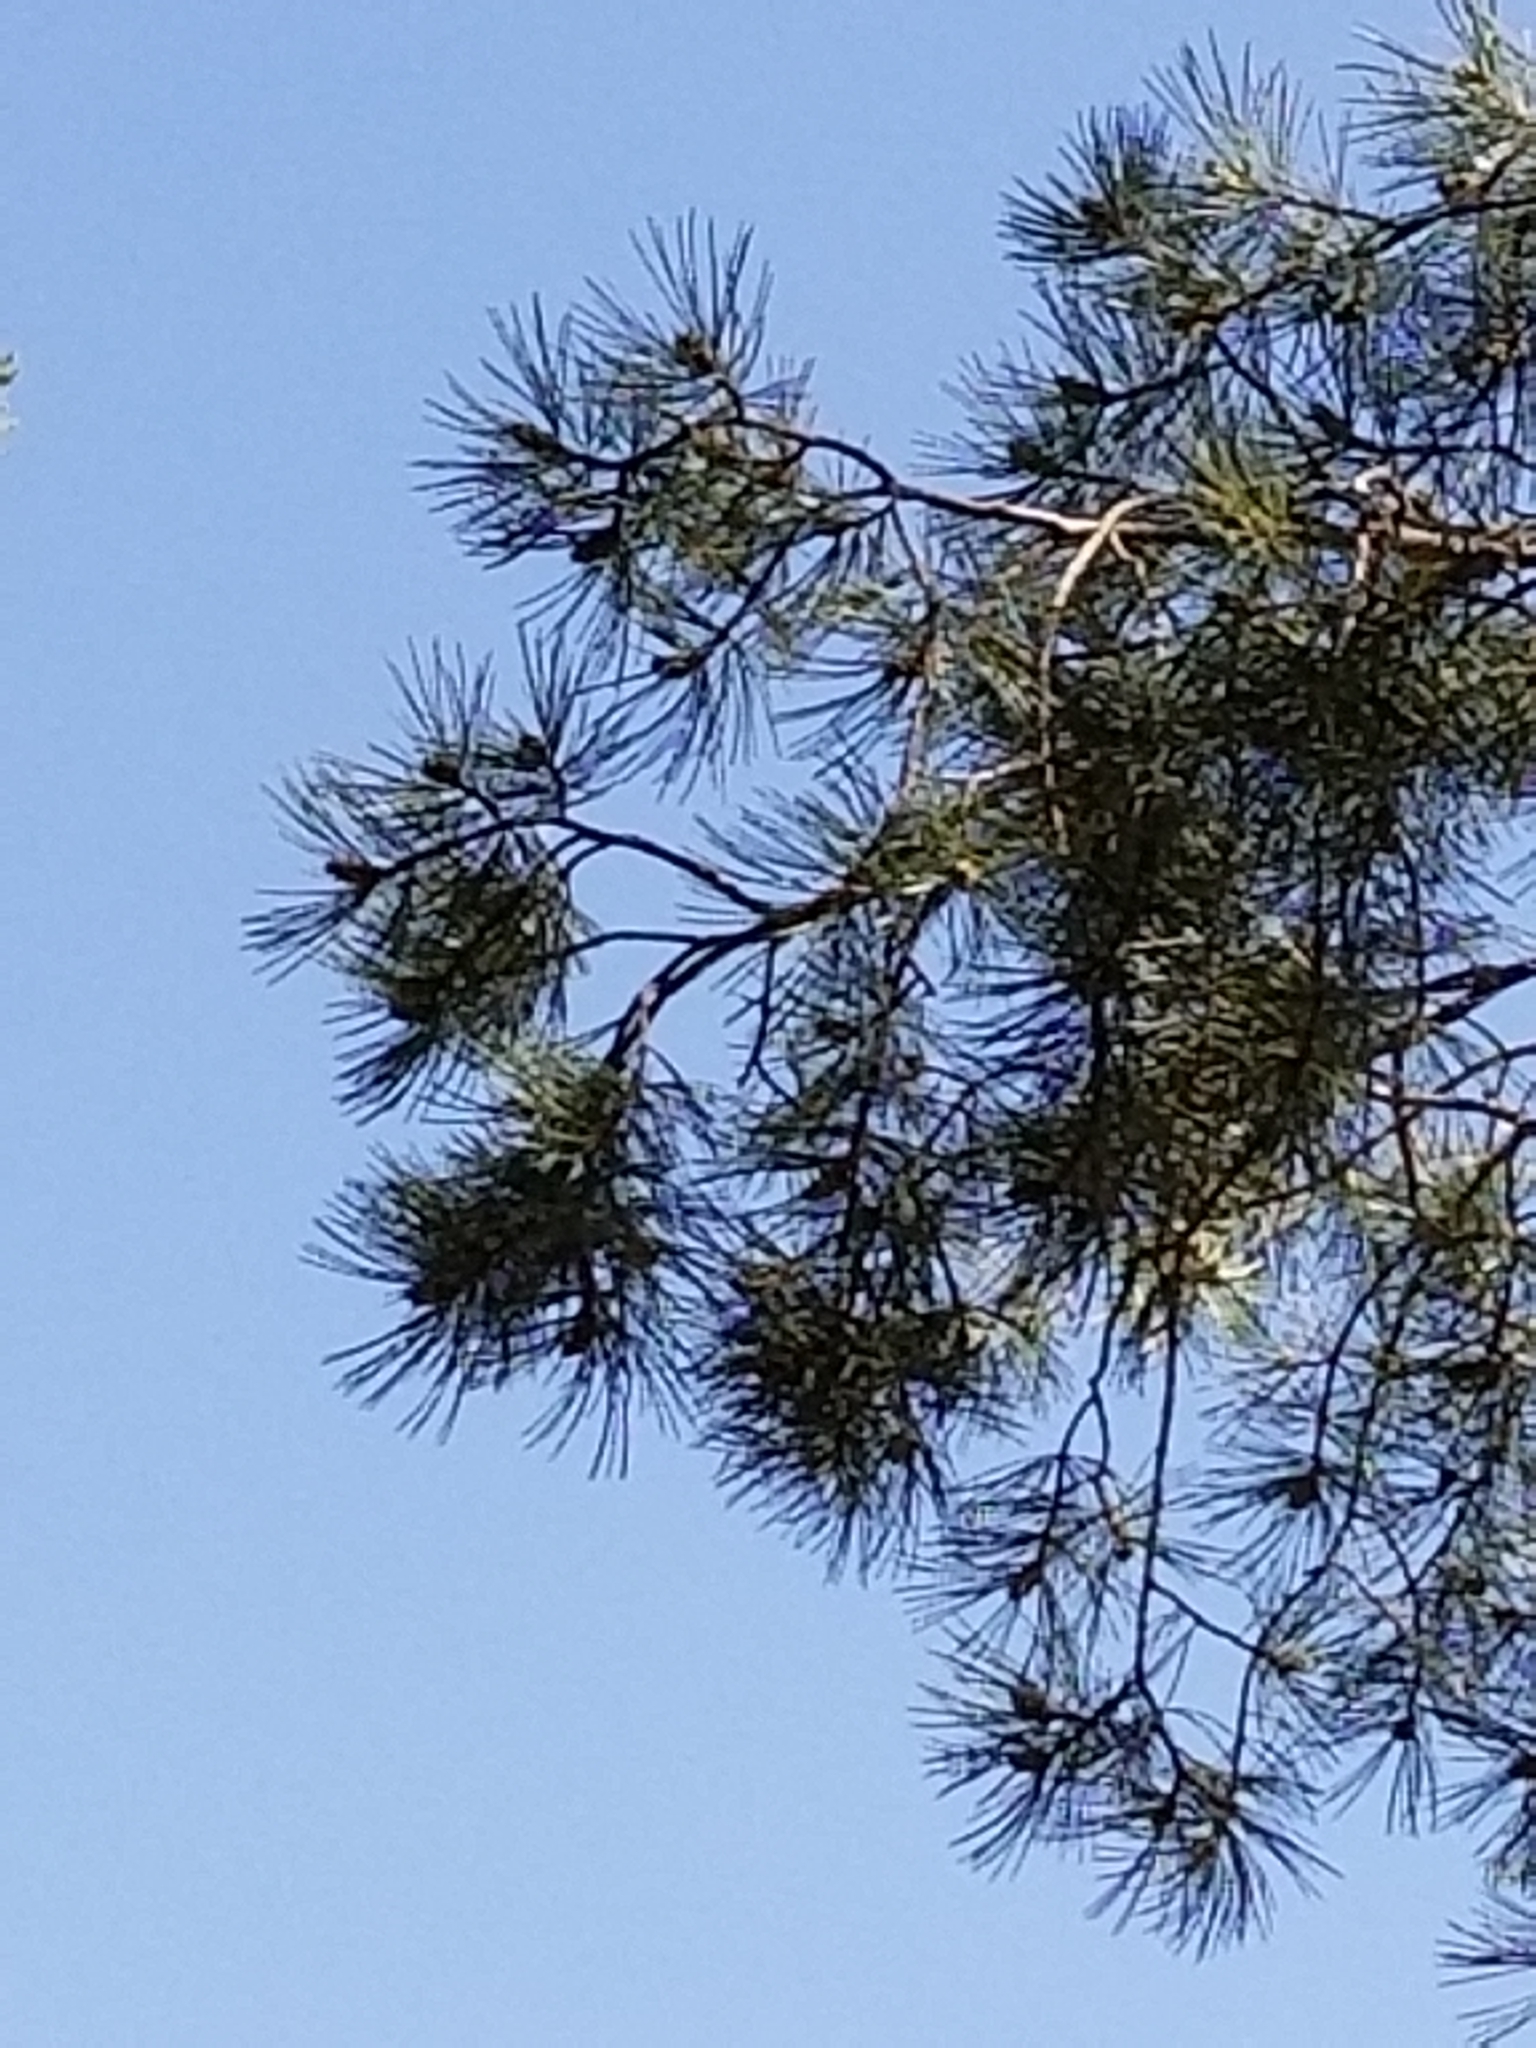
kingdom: Plantae
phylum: Tracheophyta
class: Pinopsida
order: Pinales
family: Pinaceae
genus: Pinus
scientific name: Pinus lambertiana
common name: Sugar pine
